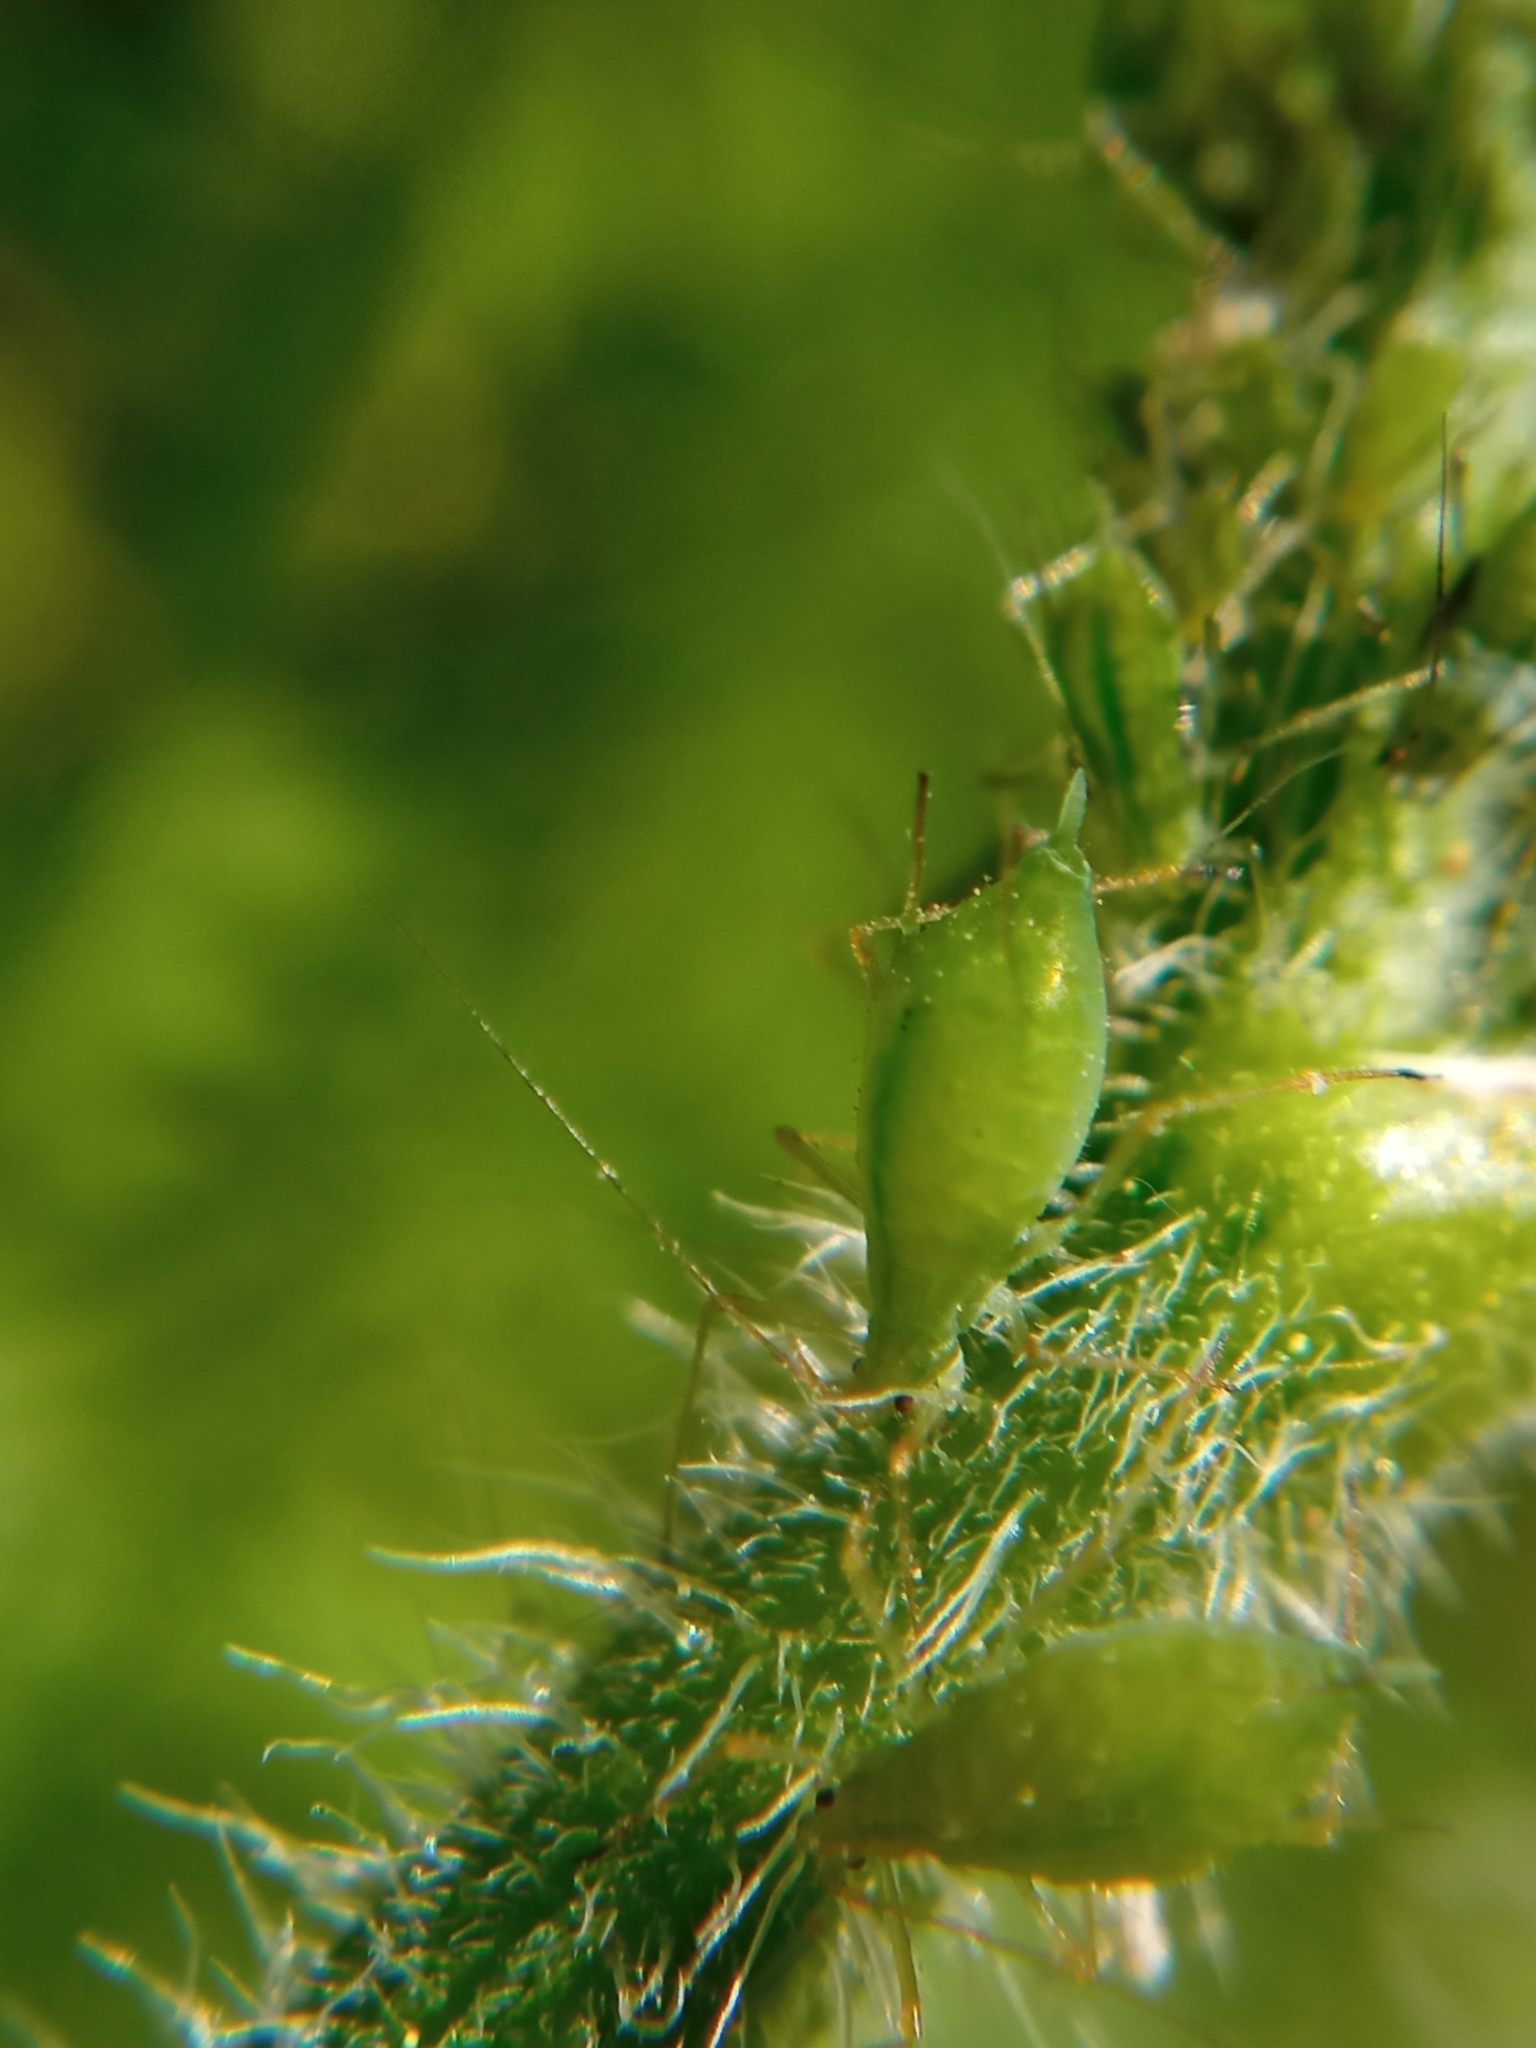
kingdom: Animalia
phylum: Arthropoda
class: Insecta
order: Hemiptera
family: Aphididae
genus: Macrosiphum
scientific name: Macrosiphum gei
